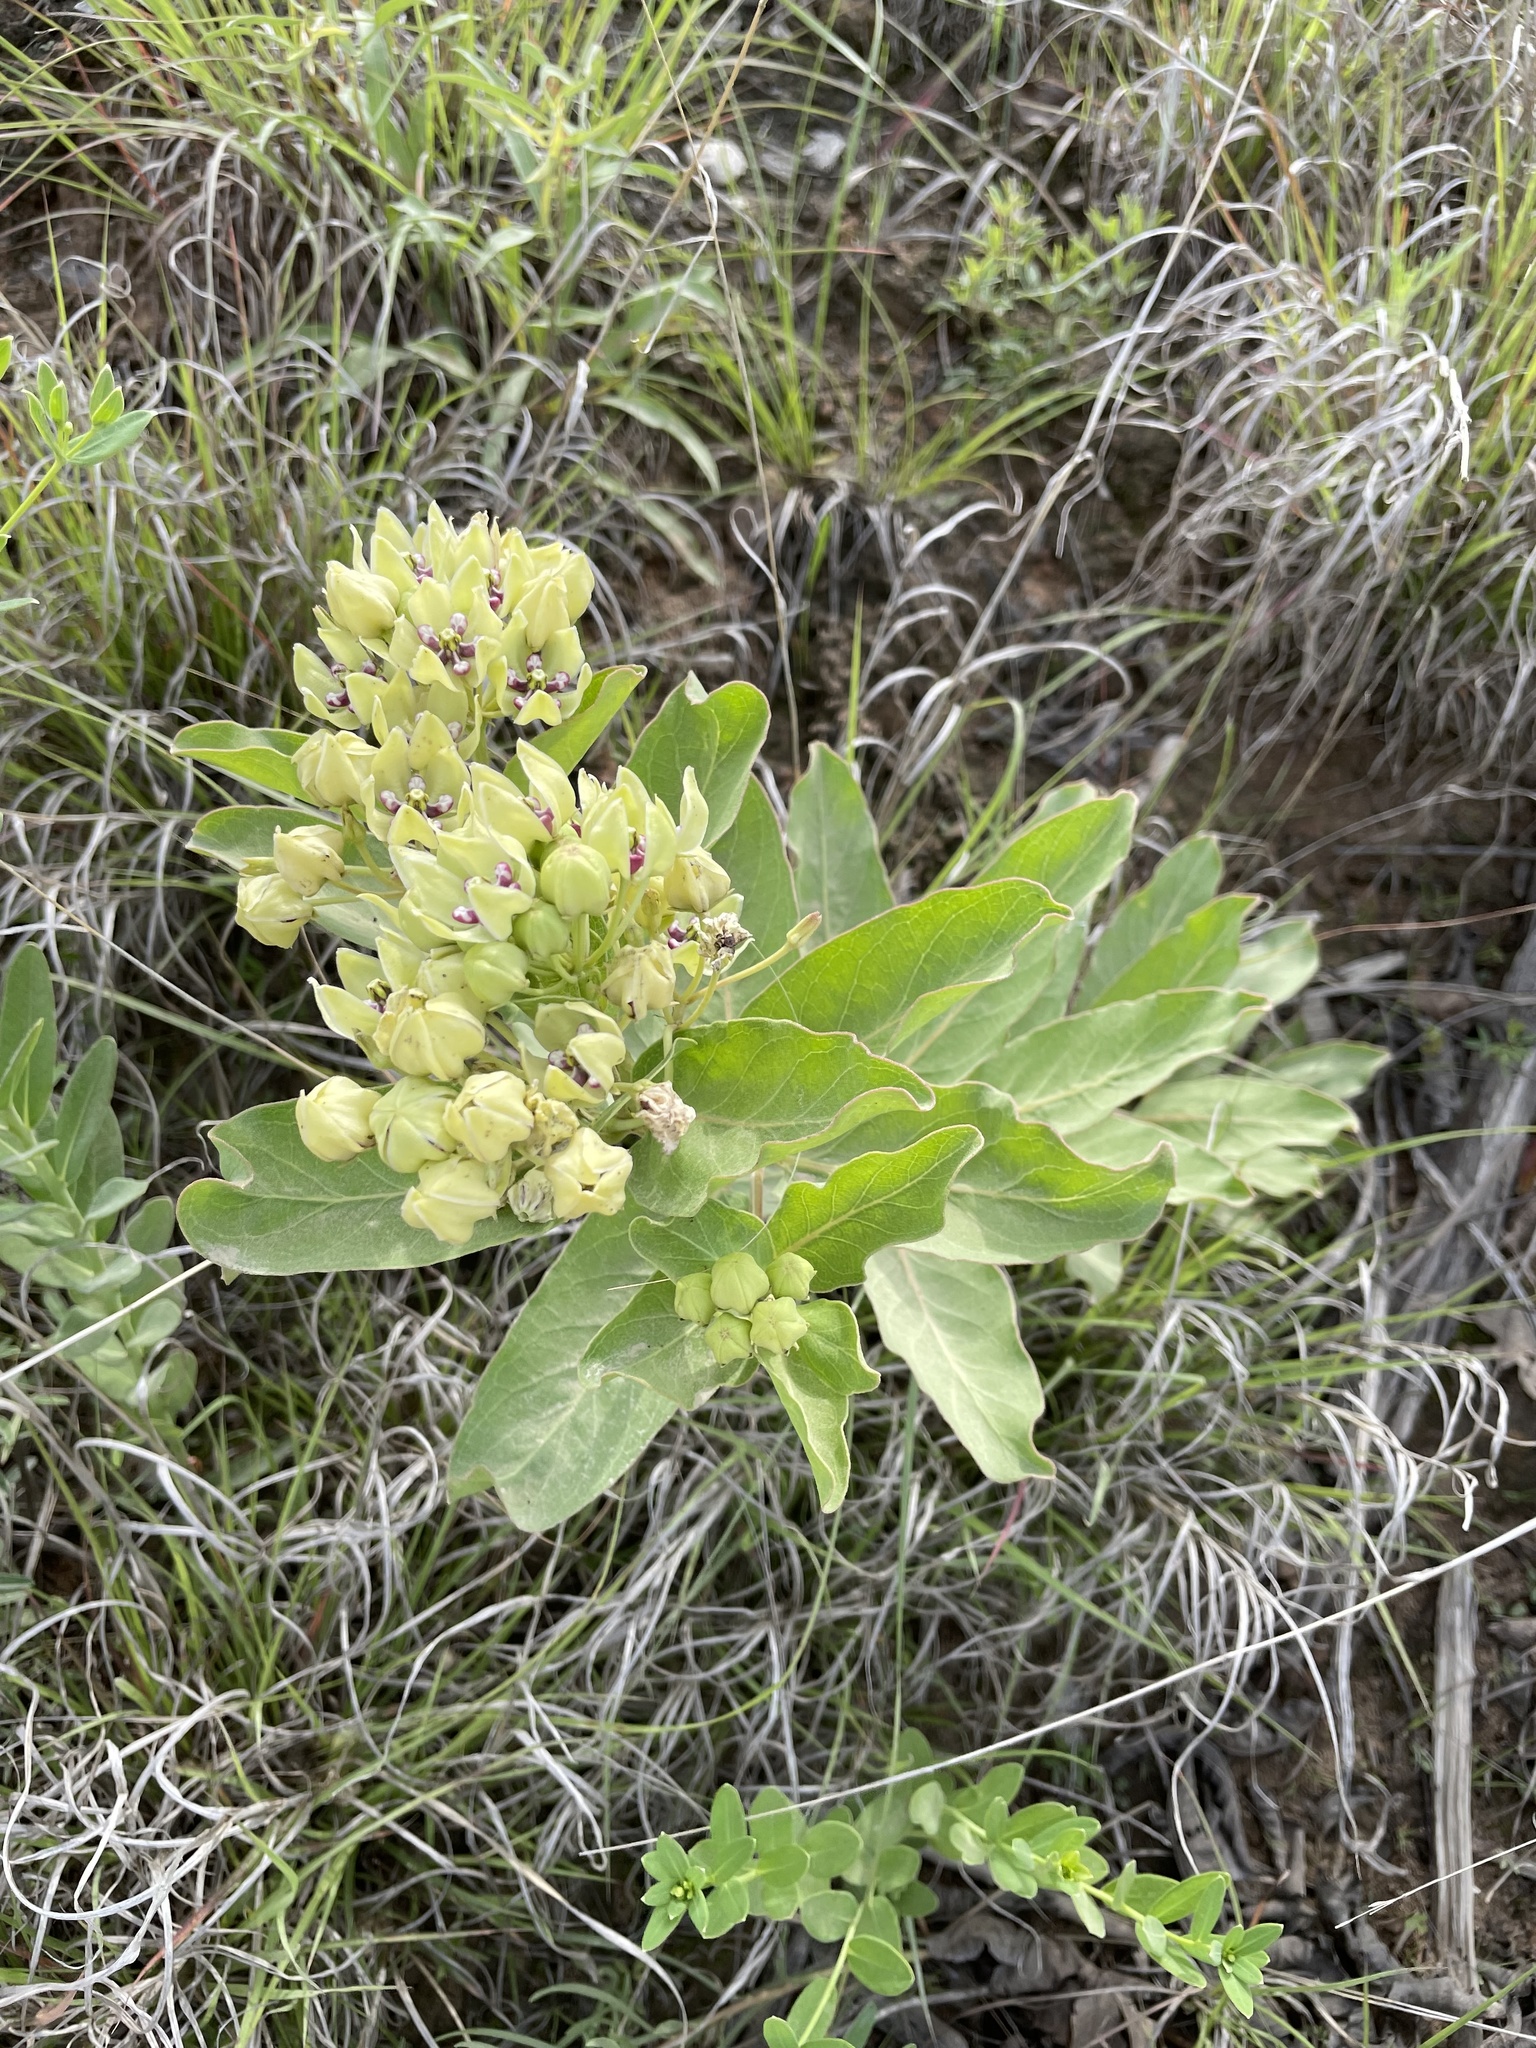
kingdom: Plantae
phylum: Tracheophyta
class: Magnoliopsida
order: Gentianales
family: Apocynaceae
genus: Asclepias
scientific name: Asclepias viridis
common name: Antelope-horns
